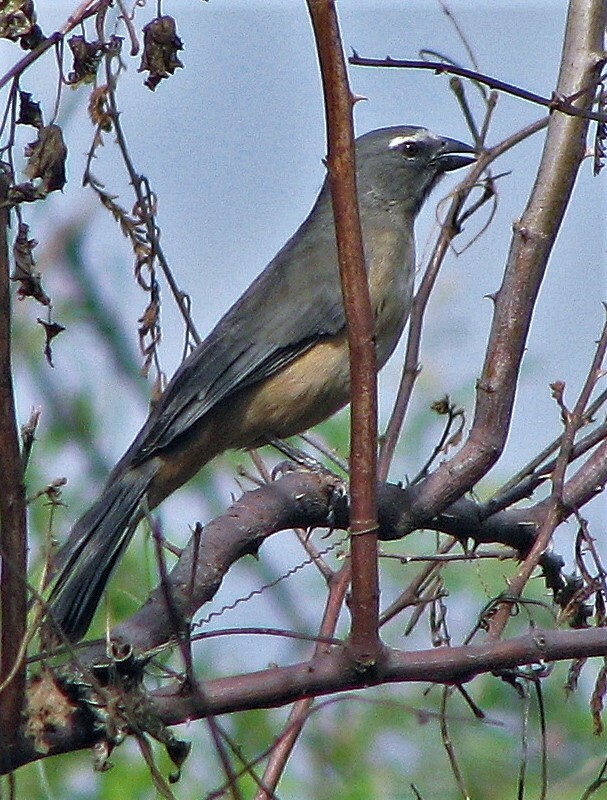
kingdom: Animalia
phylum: Chordata
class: Aves
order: Passeriformes
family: Thraupidae
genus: Saltator
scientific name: Saltator coerulescens
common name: Grayish saltator
